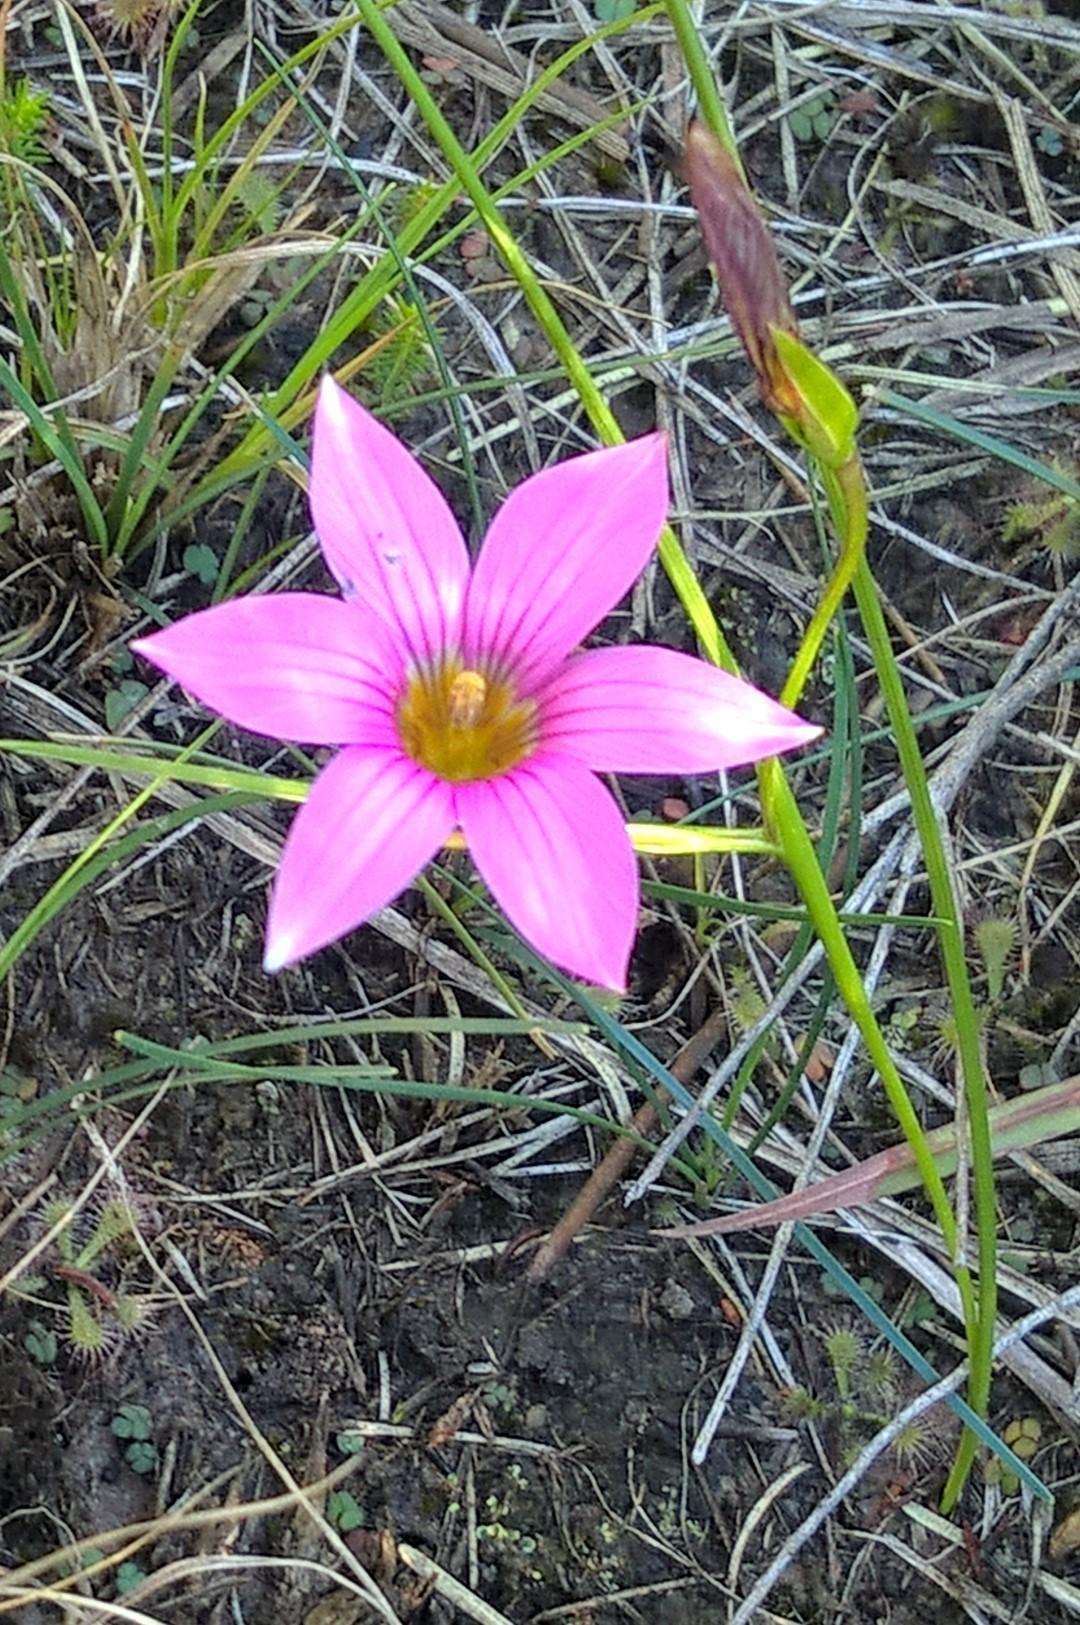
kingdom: Plantae
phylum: Tracheophyta
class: Liliopsida
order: Asparagales
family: Iridaceae
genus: Romulea
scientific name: Romulea rosea
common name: Oniongrass
